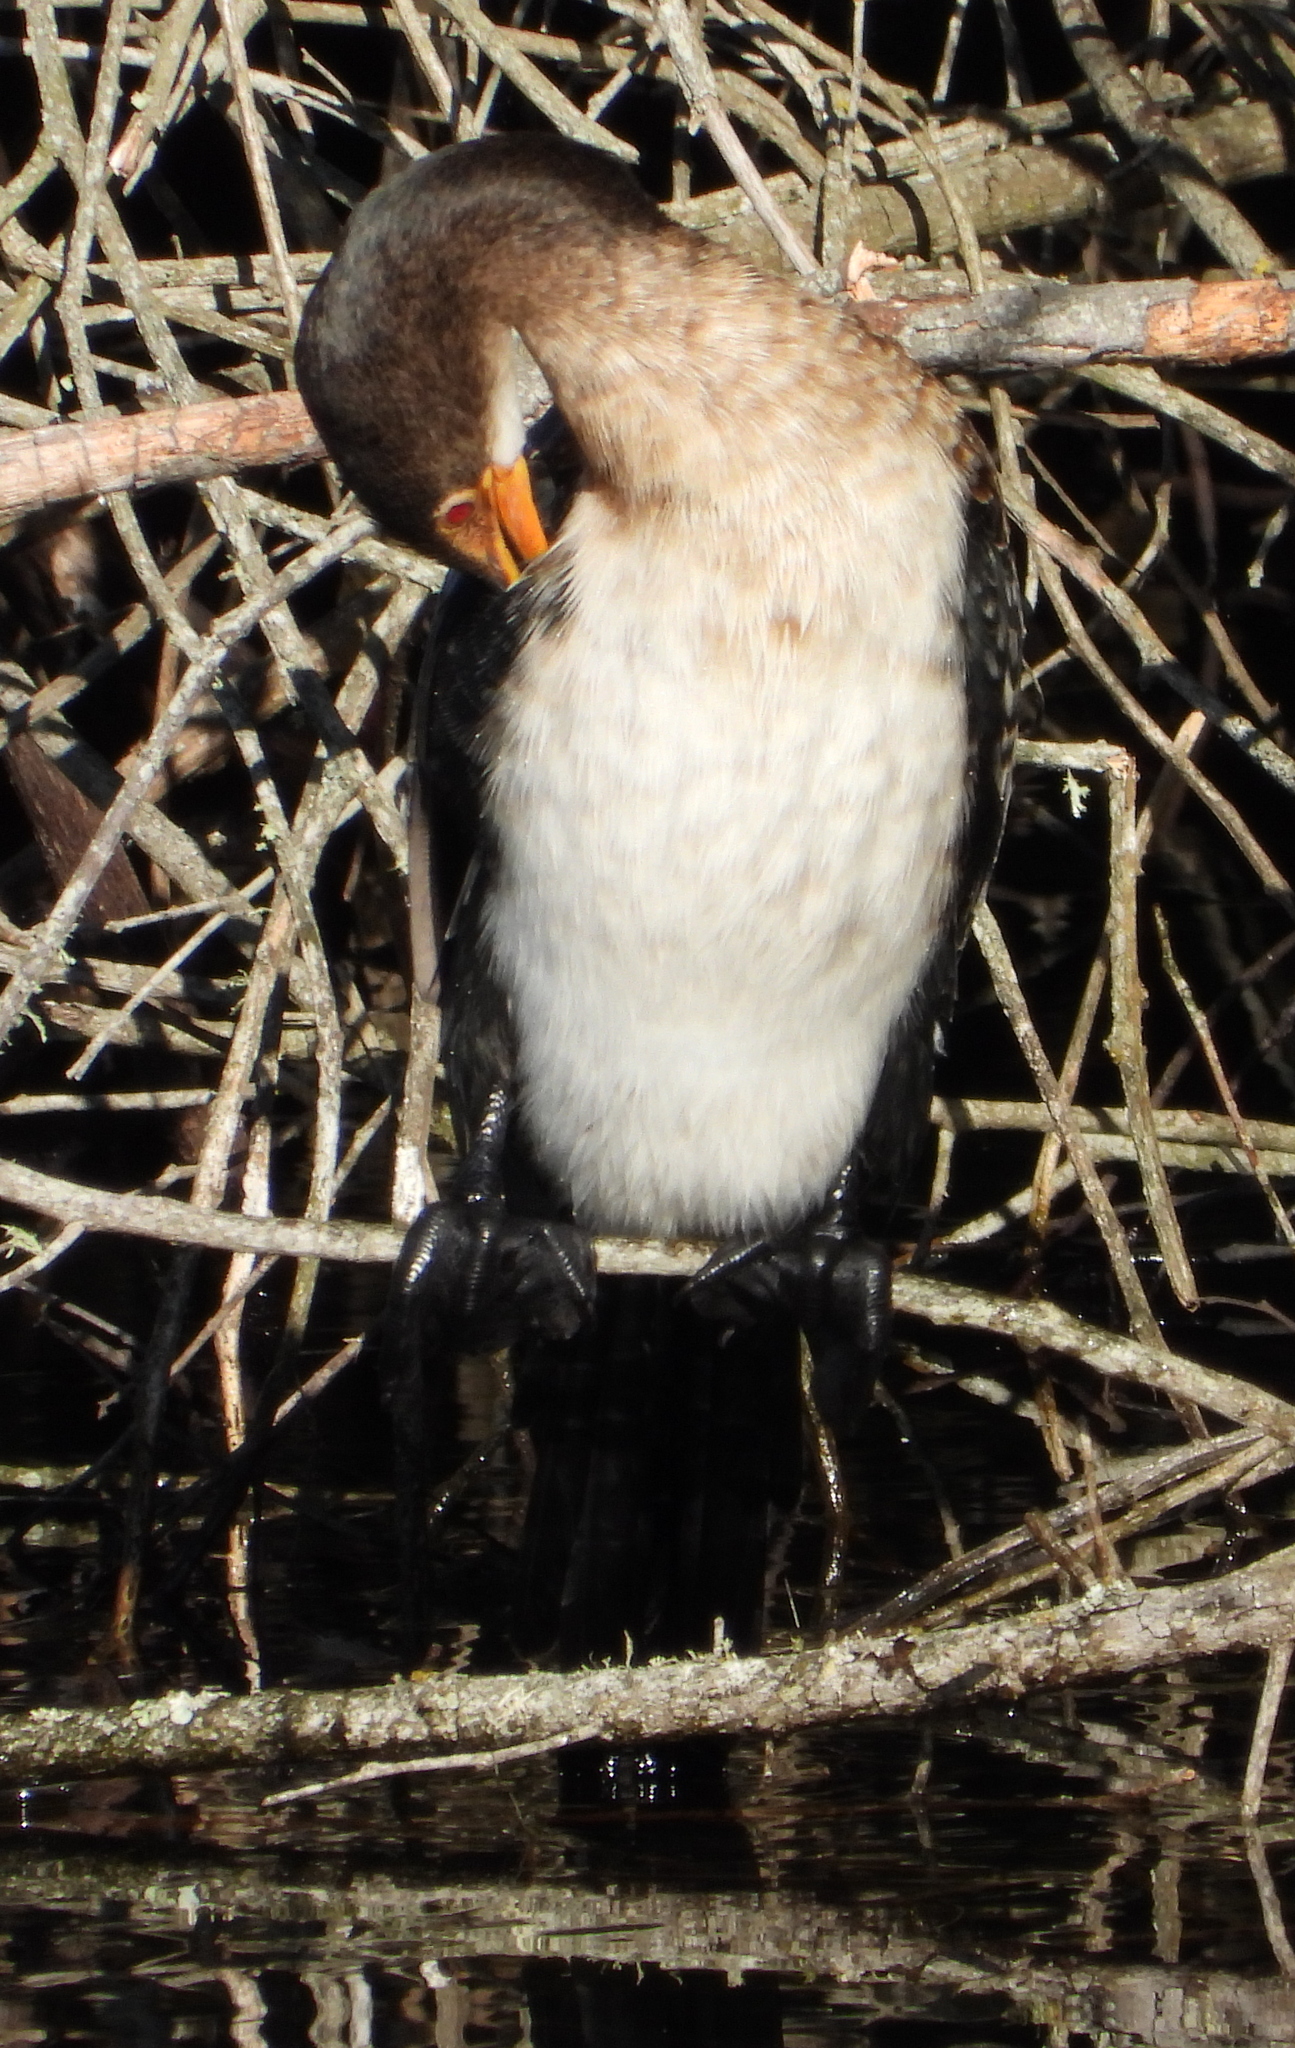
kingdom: Animalia
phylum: Chordata
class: Aves
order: Suliformes
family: Phalacrocoracidae
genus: Microcarbo
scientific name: Microcarbo africanus
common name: Long-tailed cormorant
